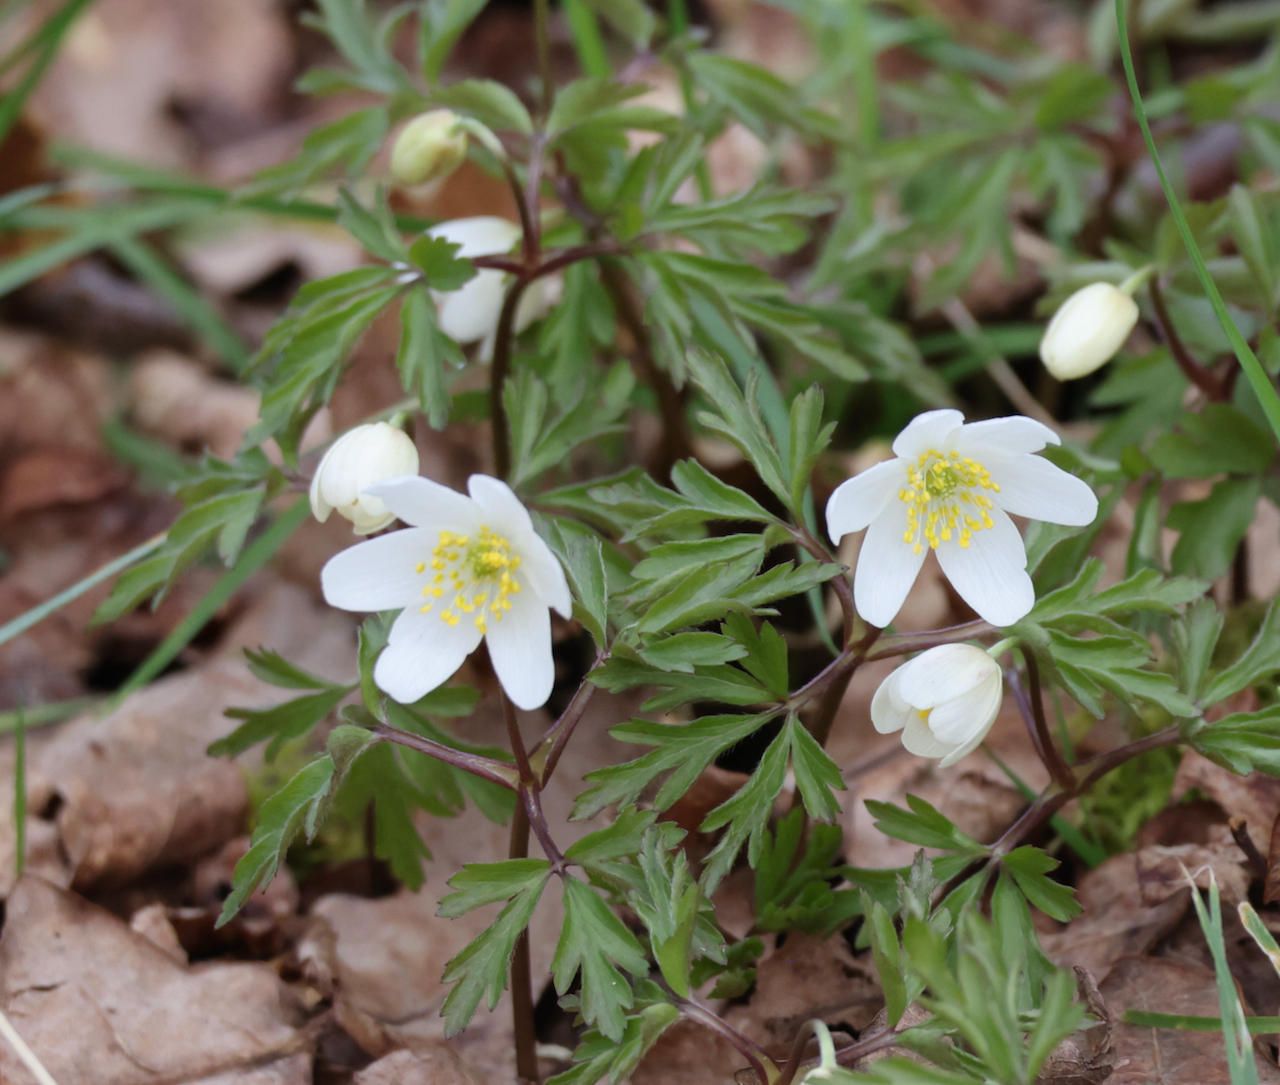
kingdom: Plantae
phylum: Tracheophyta
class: Magnoliopsida
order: Ranunculales
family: Ranunculaceae
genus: Anemone
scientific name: Anemone nemorosa
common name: Wood anemone
